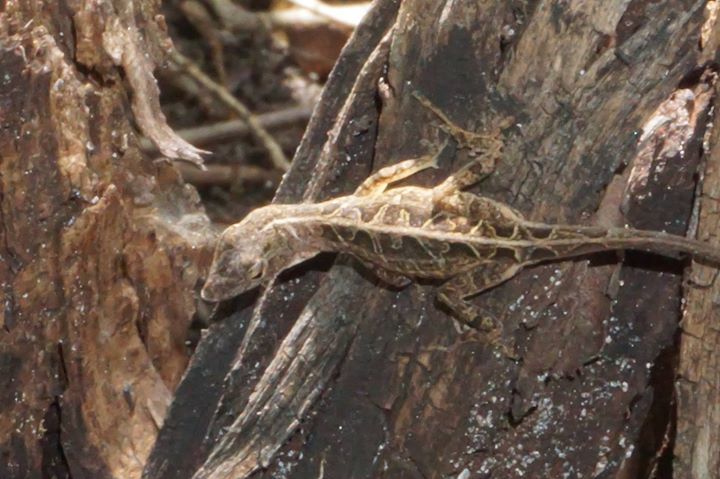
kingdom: Animalia
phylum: Chordata
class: Squamata
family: Dactyloidae
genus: Anolis
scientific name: Anolis sagrei
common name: Brown anole
